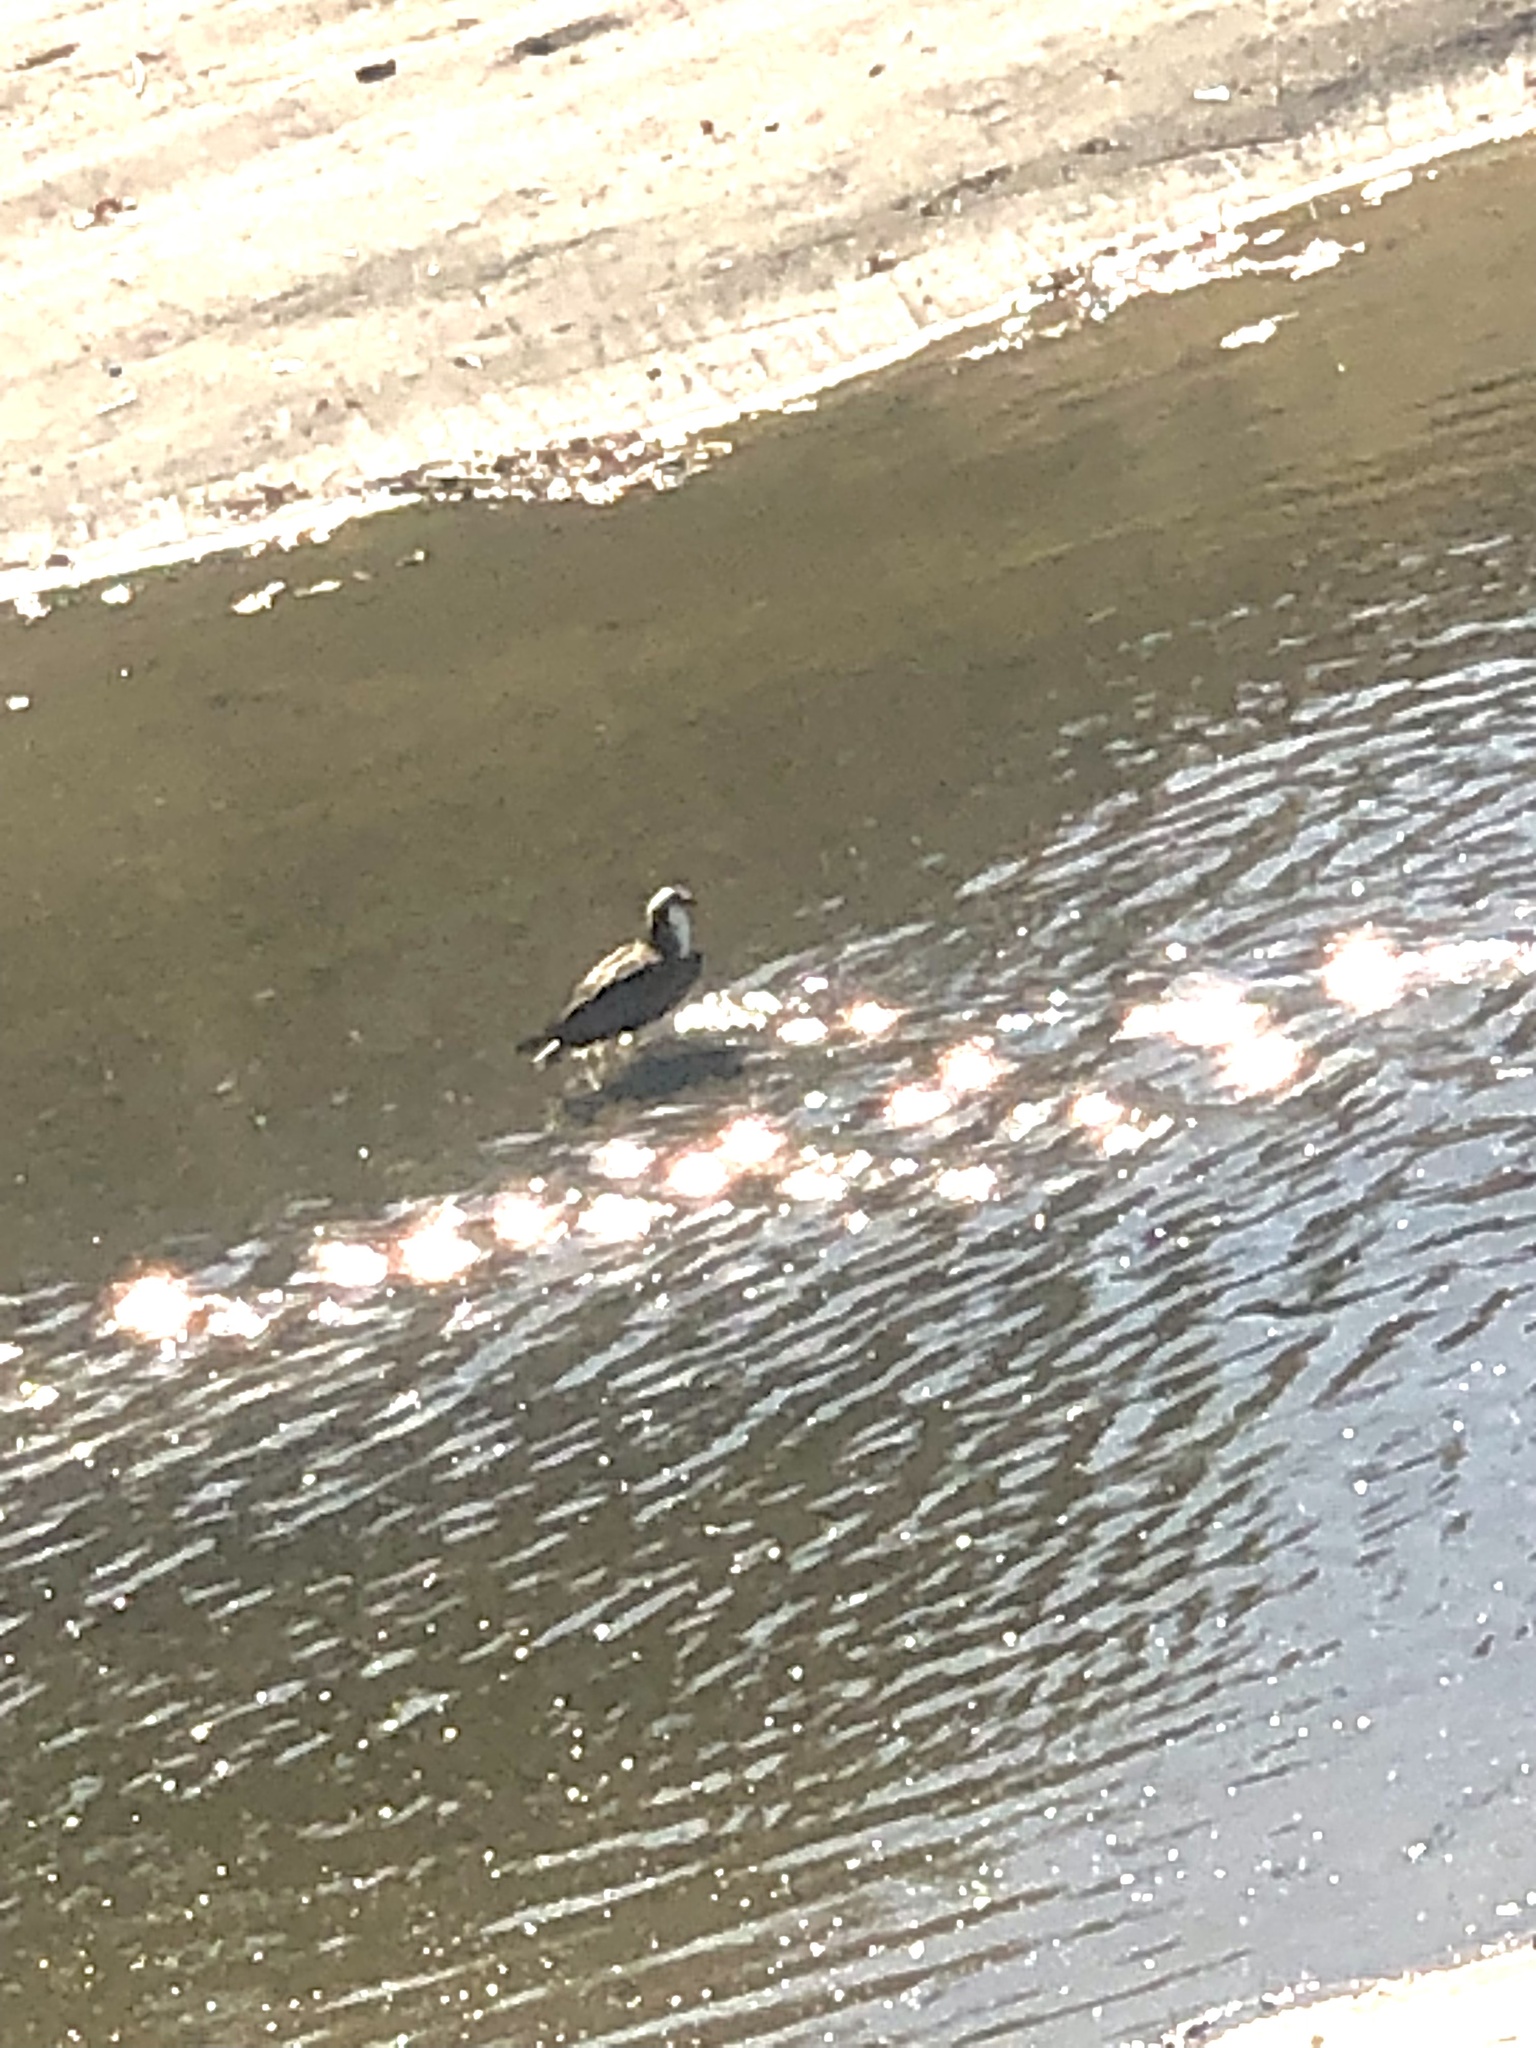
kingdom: Animalia
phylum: Chordata
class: Aves
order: Accipitriformes
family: Pandionidae
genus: Pandion
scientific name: Pandion haliaetus
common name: Osprey
